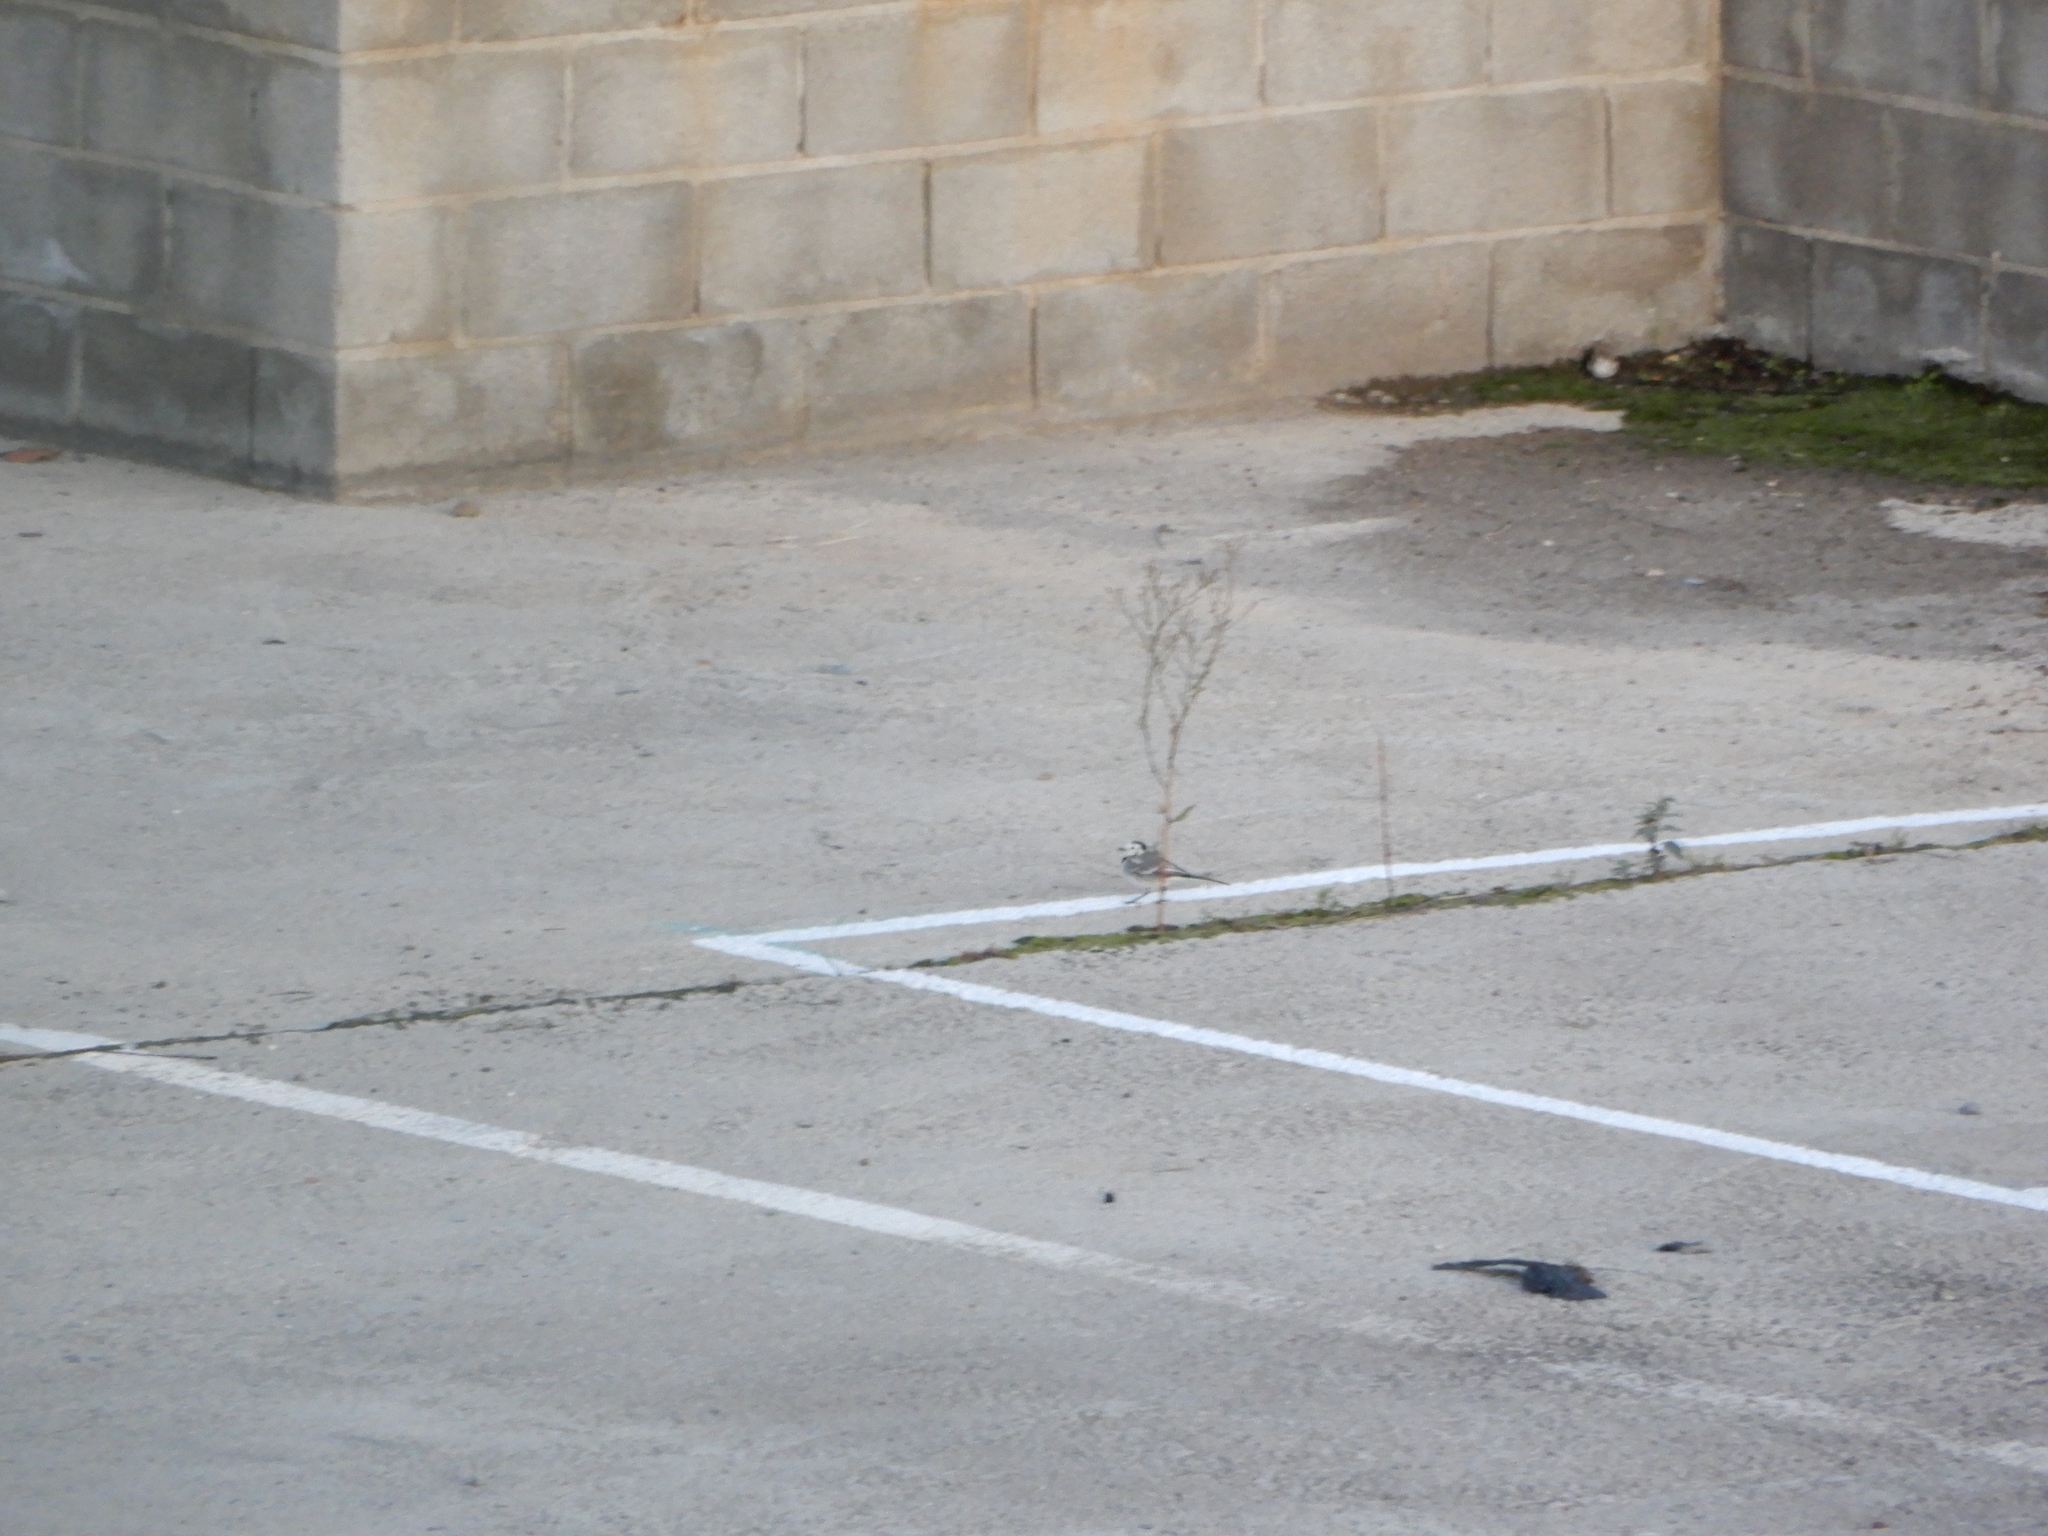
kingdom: Animalia
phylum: Chordata
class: Aves
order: Passeriformes
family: Motacillidae
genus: Motacilla
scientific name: Motacilla alba
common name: White wagtail
